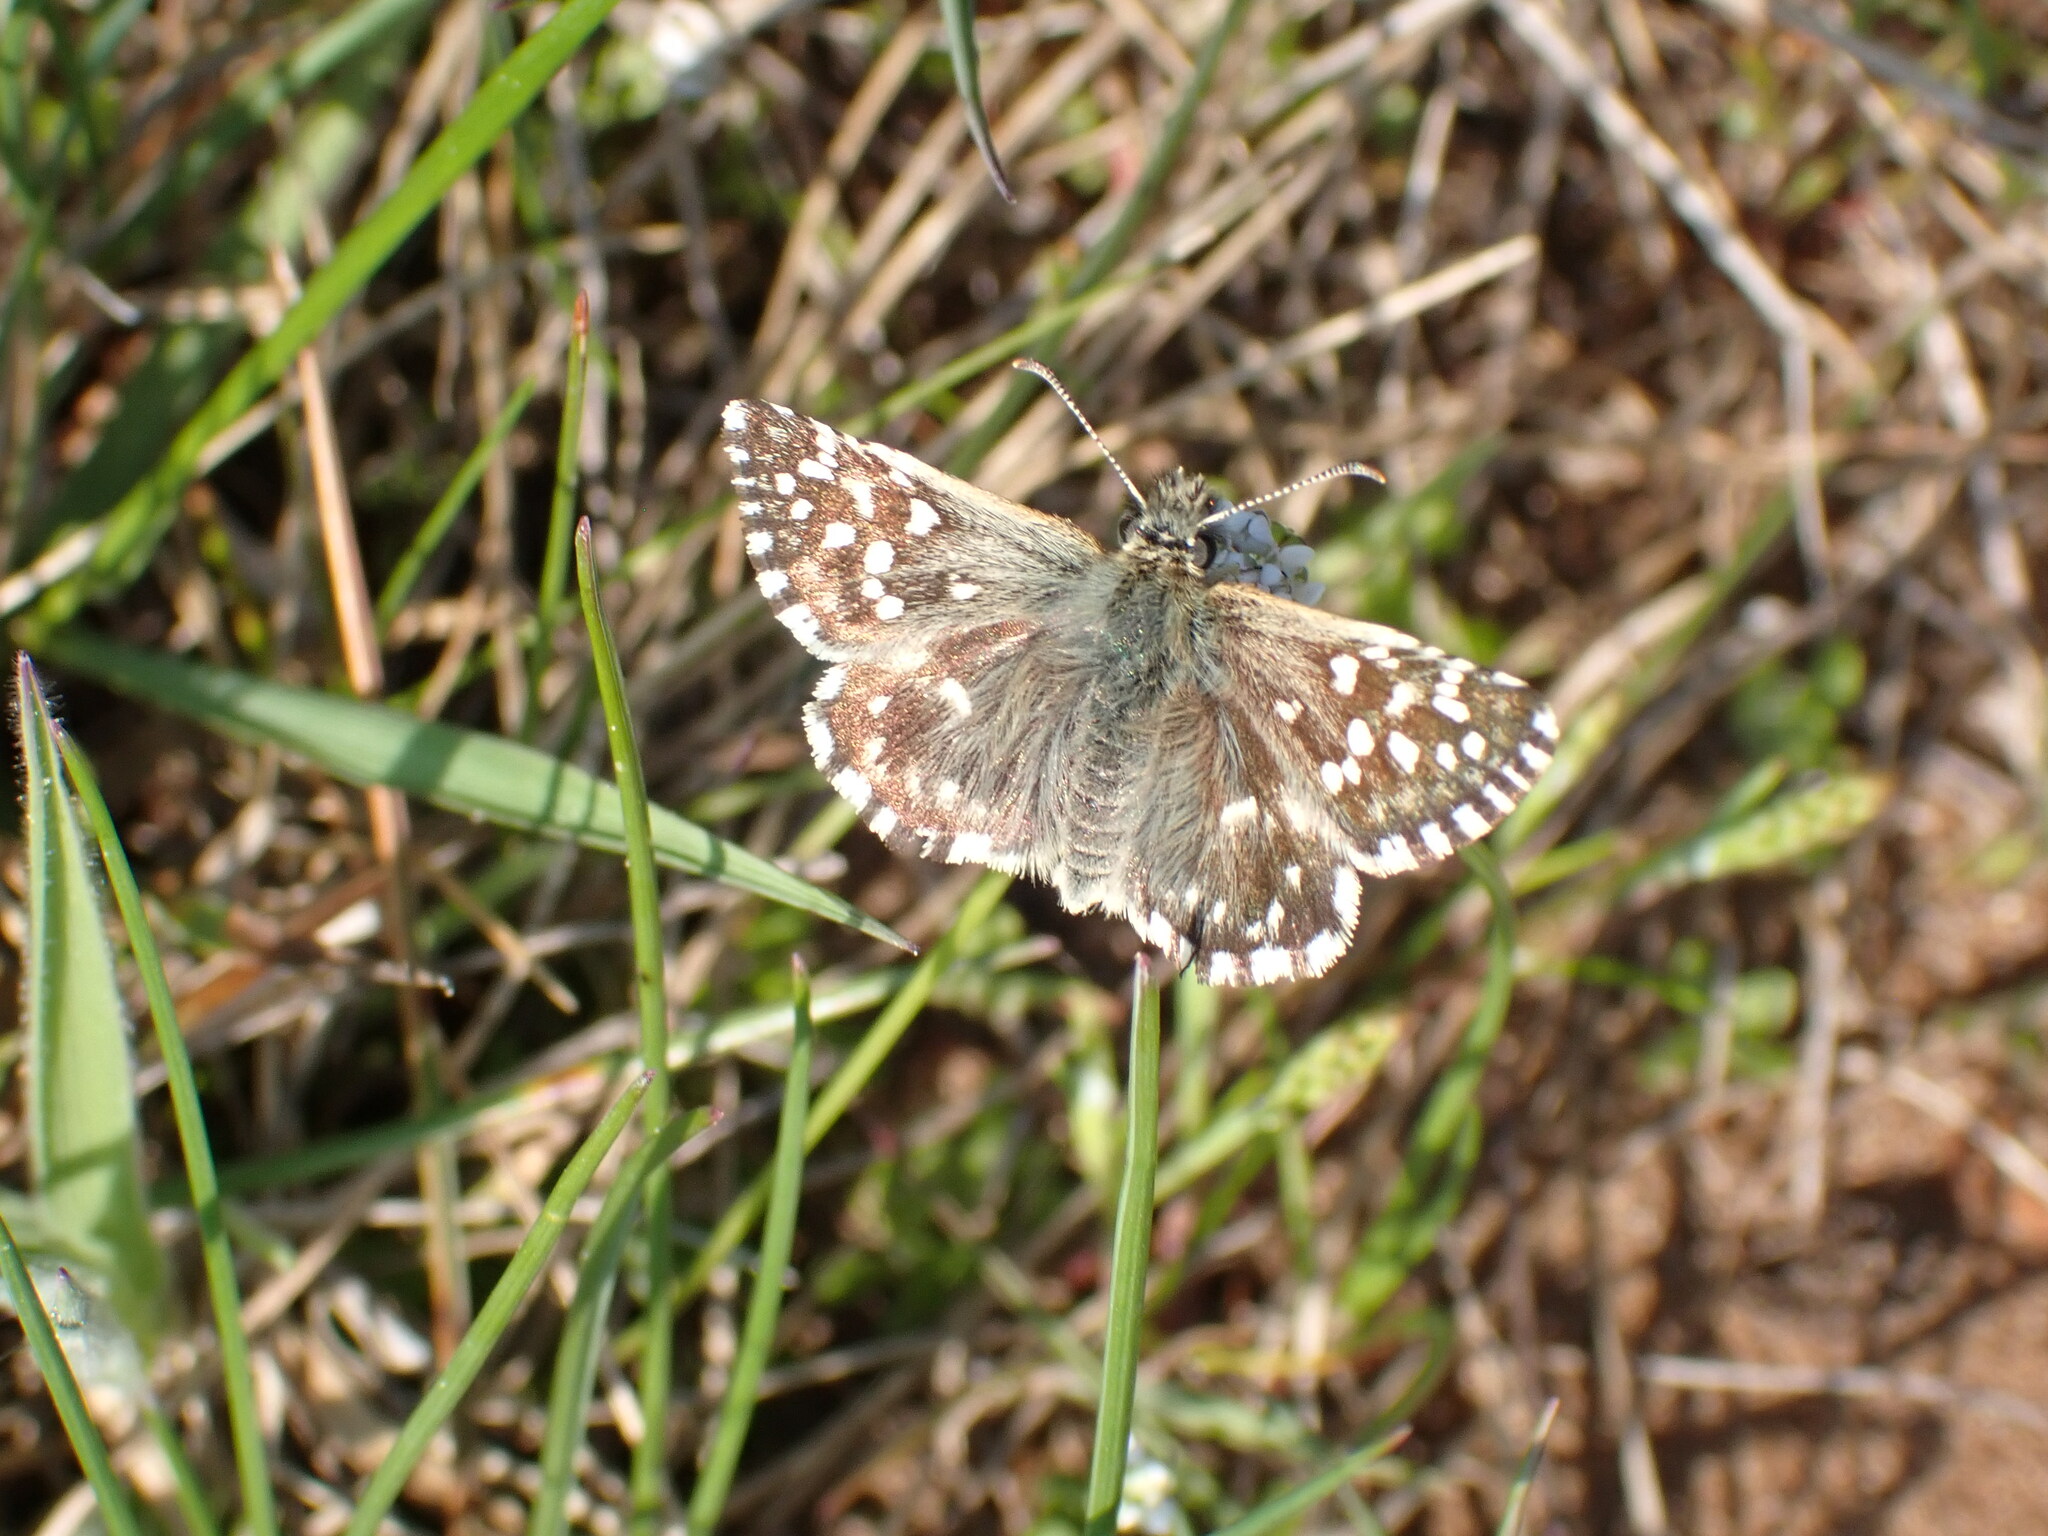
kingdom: Animalia
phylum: Arthropoda
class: Insecta
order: Lepidoptera
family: Hesperiidae
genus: Pyrgus
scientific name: Pyrgus malvae
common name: Grizzled skipper
